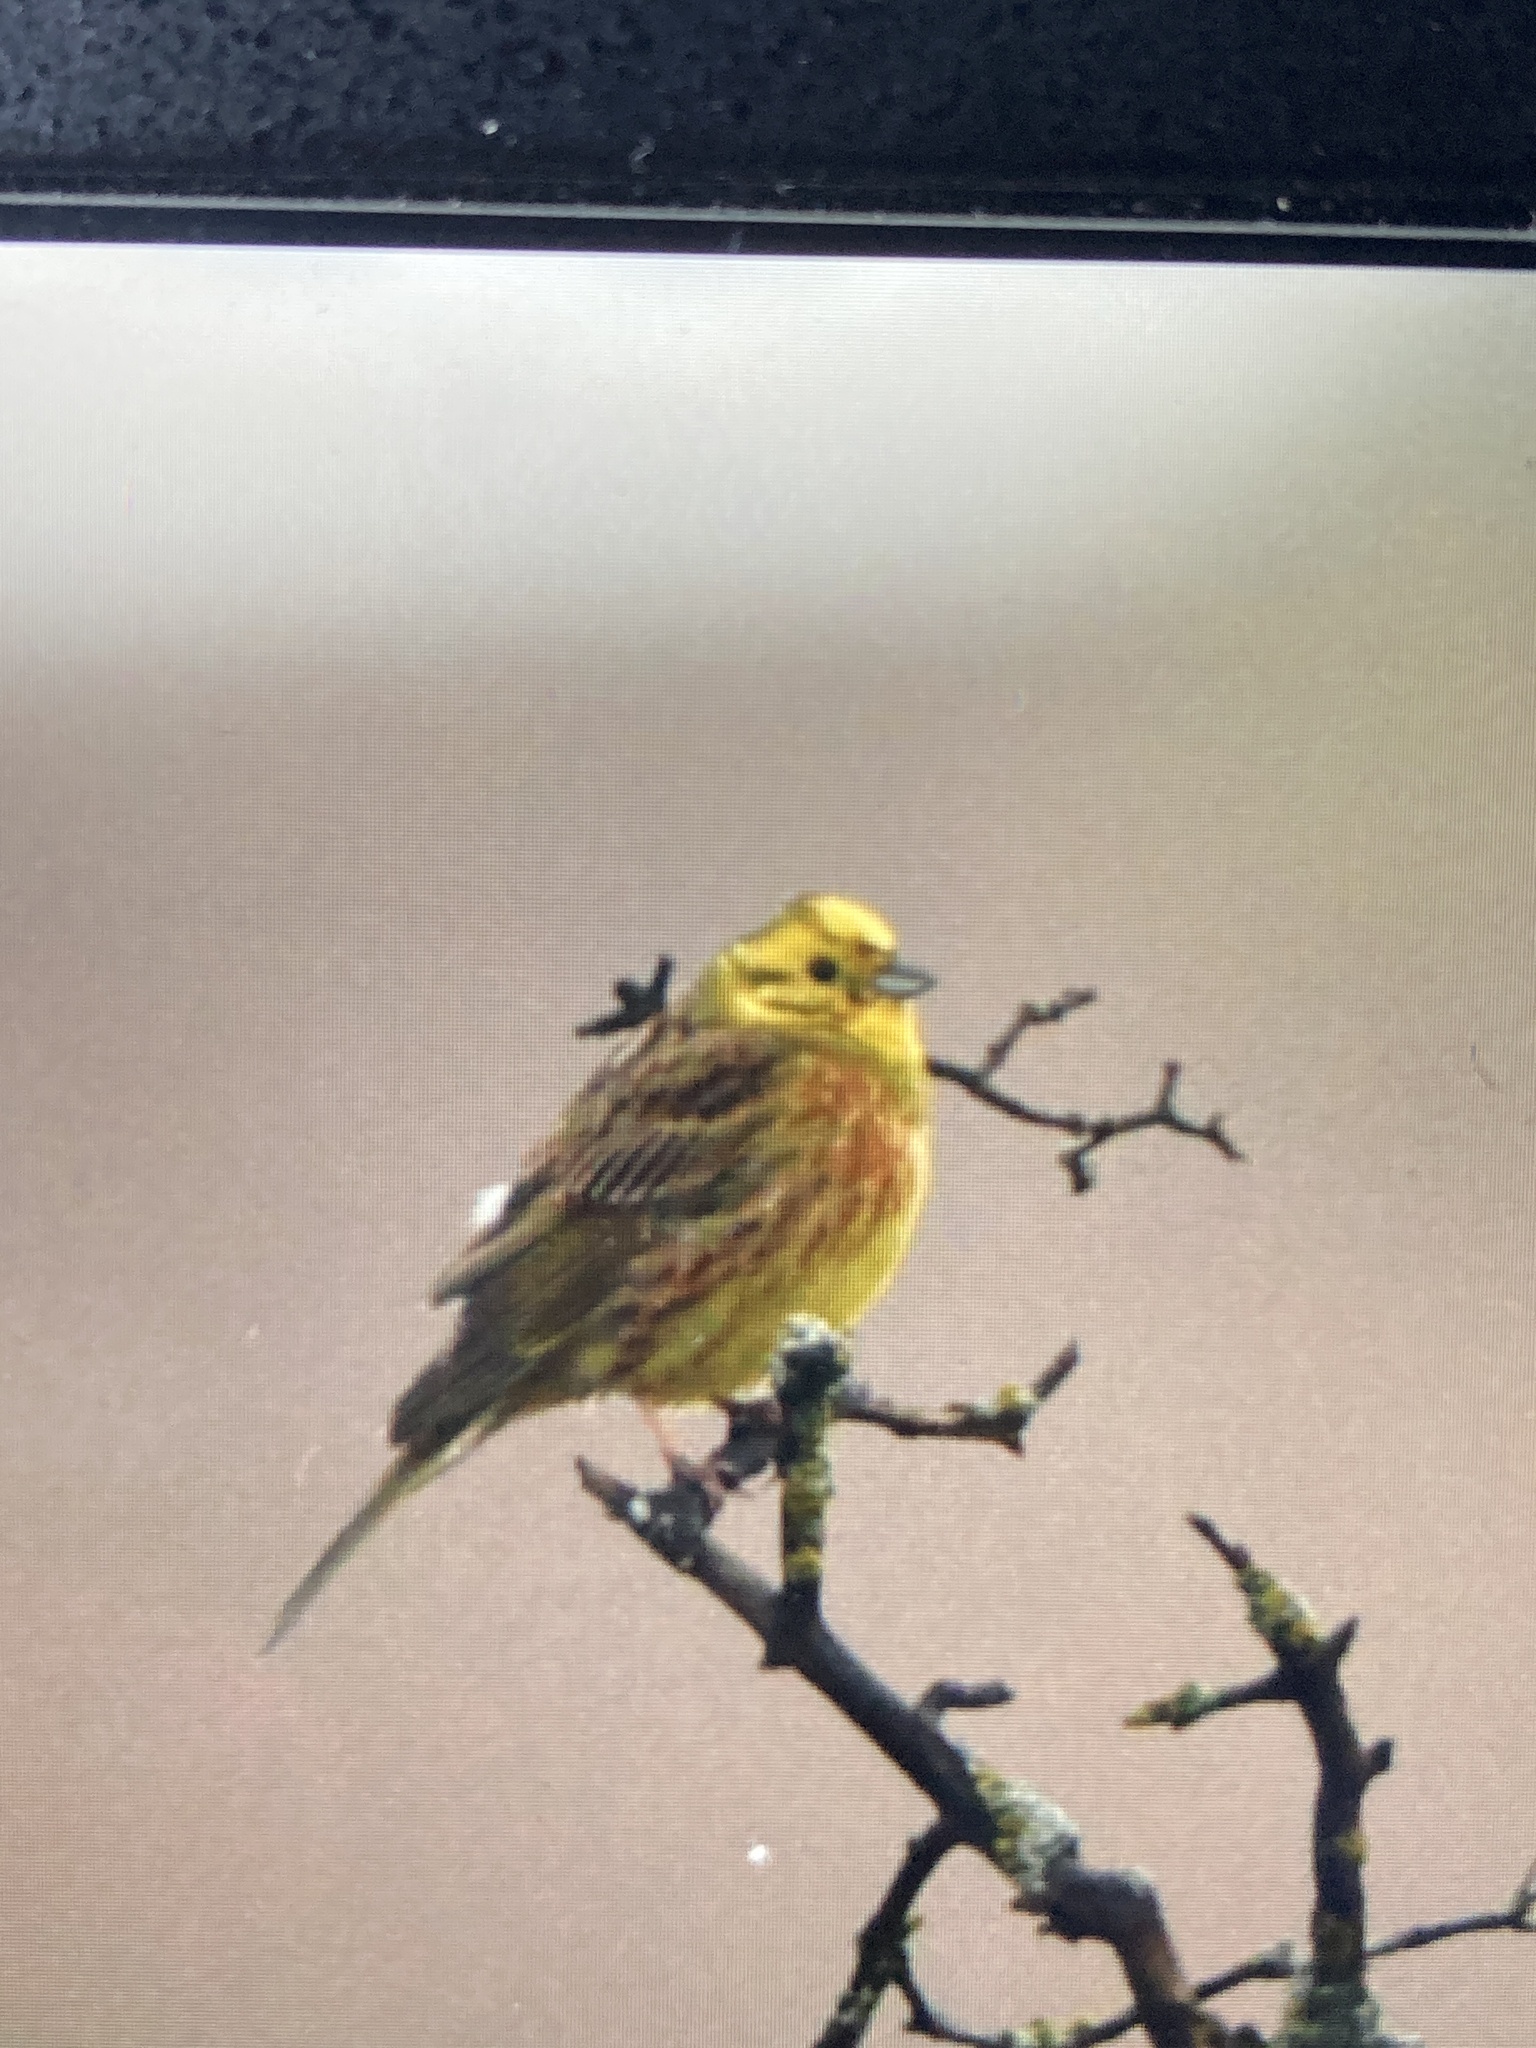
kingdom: Animalia
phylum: Chordata
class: Aves
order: Passeriformes
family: Emberizidae
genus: Emberiza
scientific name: Emberiza citrinella
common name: Yellowhammer
